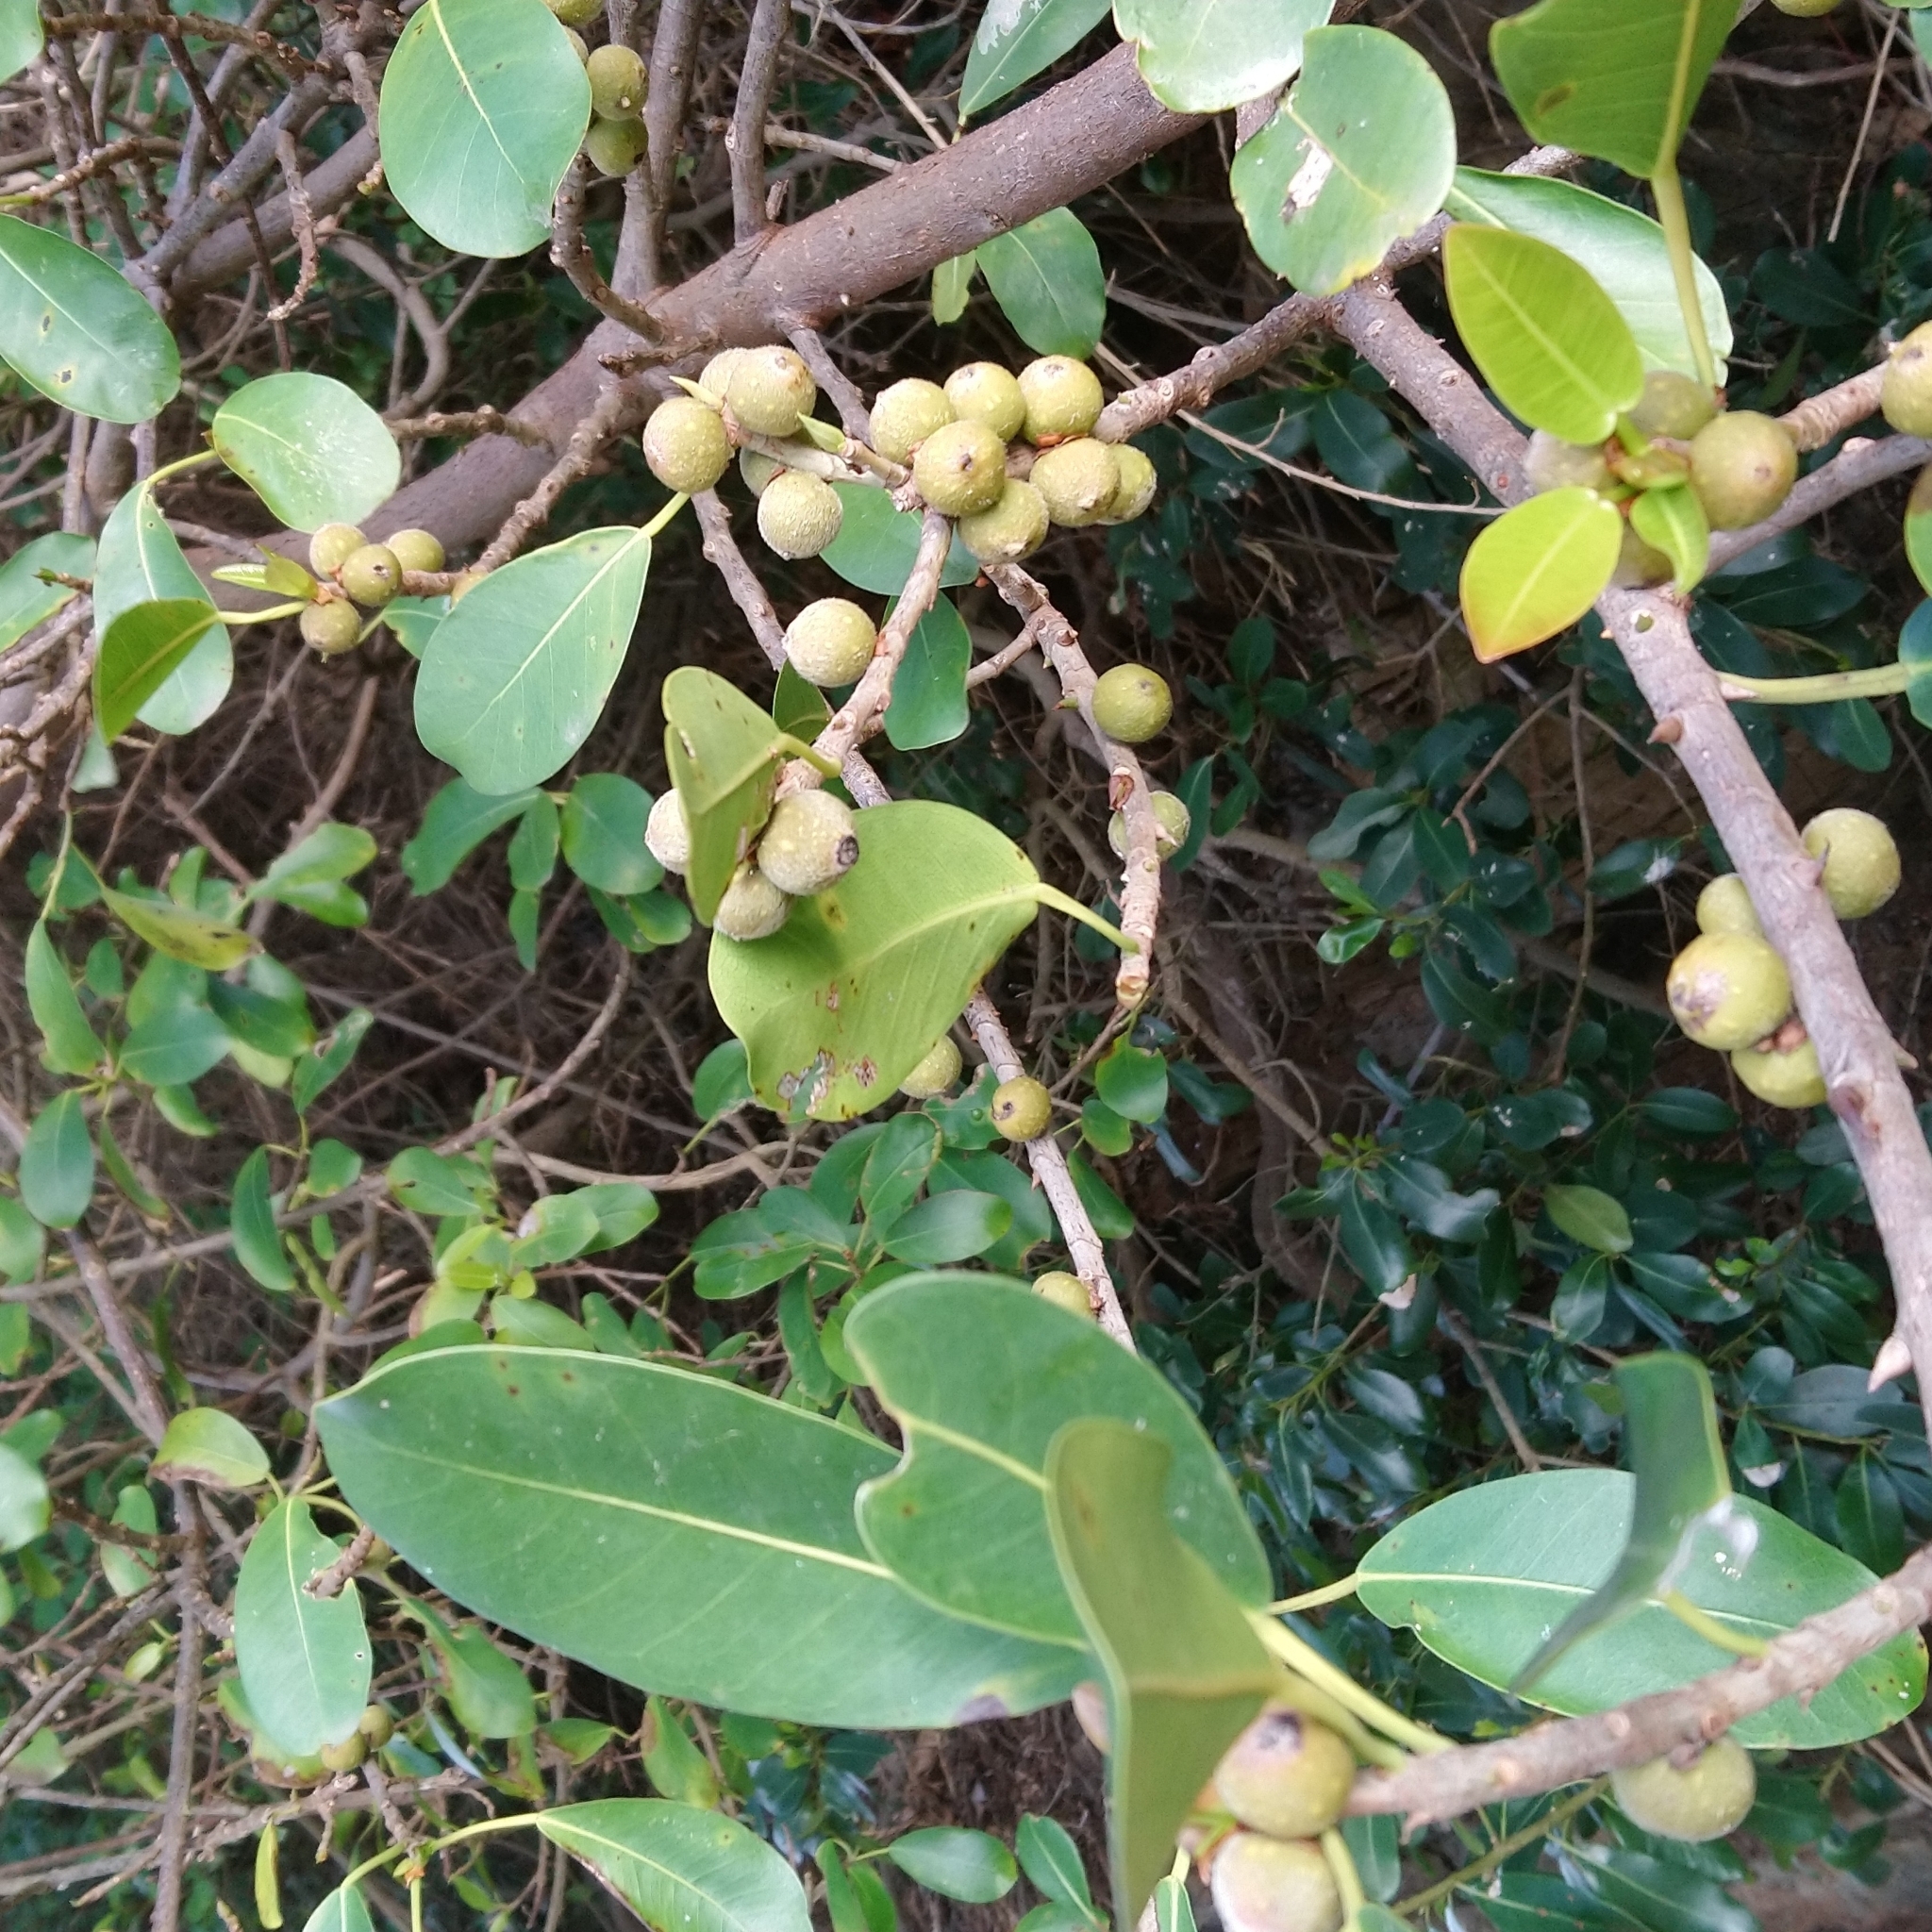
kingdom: Plantae
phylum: Tracheophyta
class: Magnoliopsida
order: Rosales
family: Moraceae
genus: Ficus
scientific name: Ficus thonningii
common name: Fig
